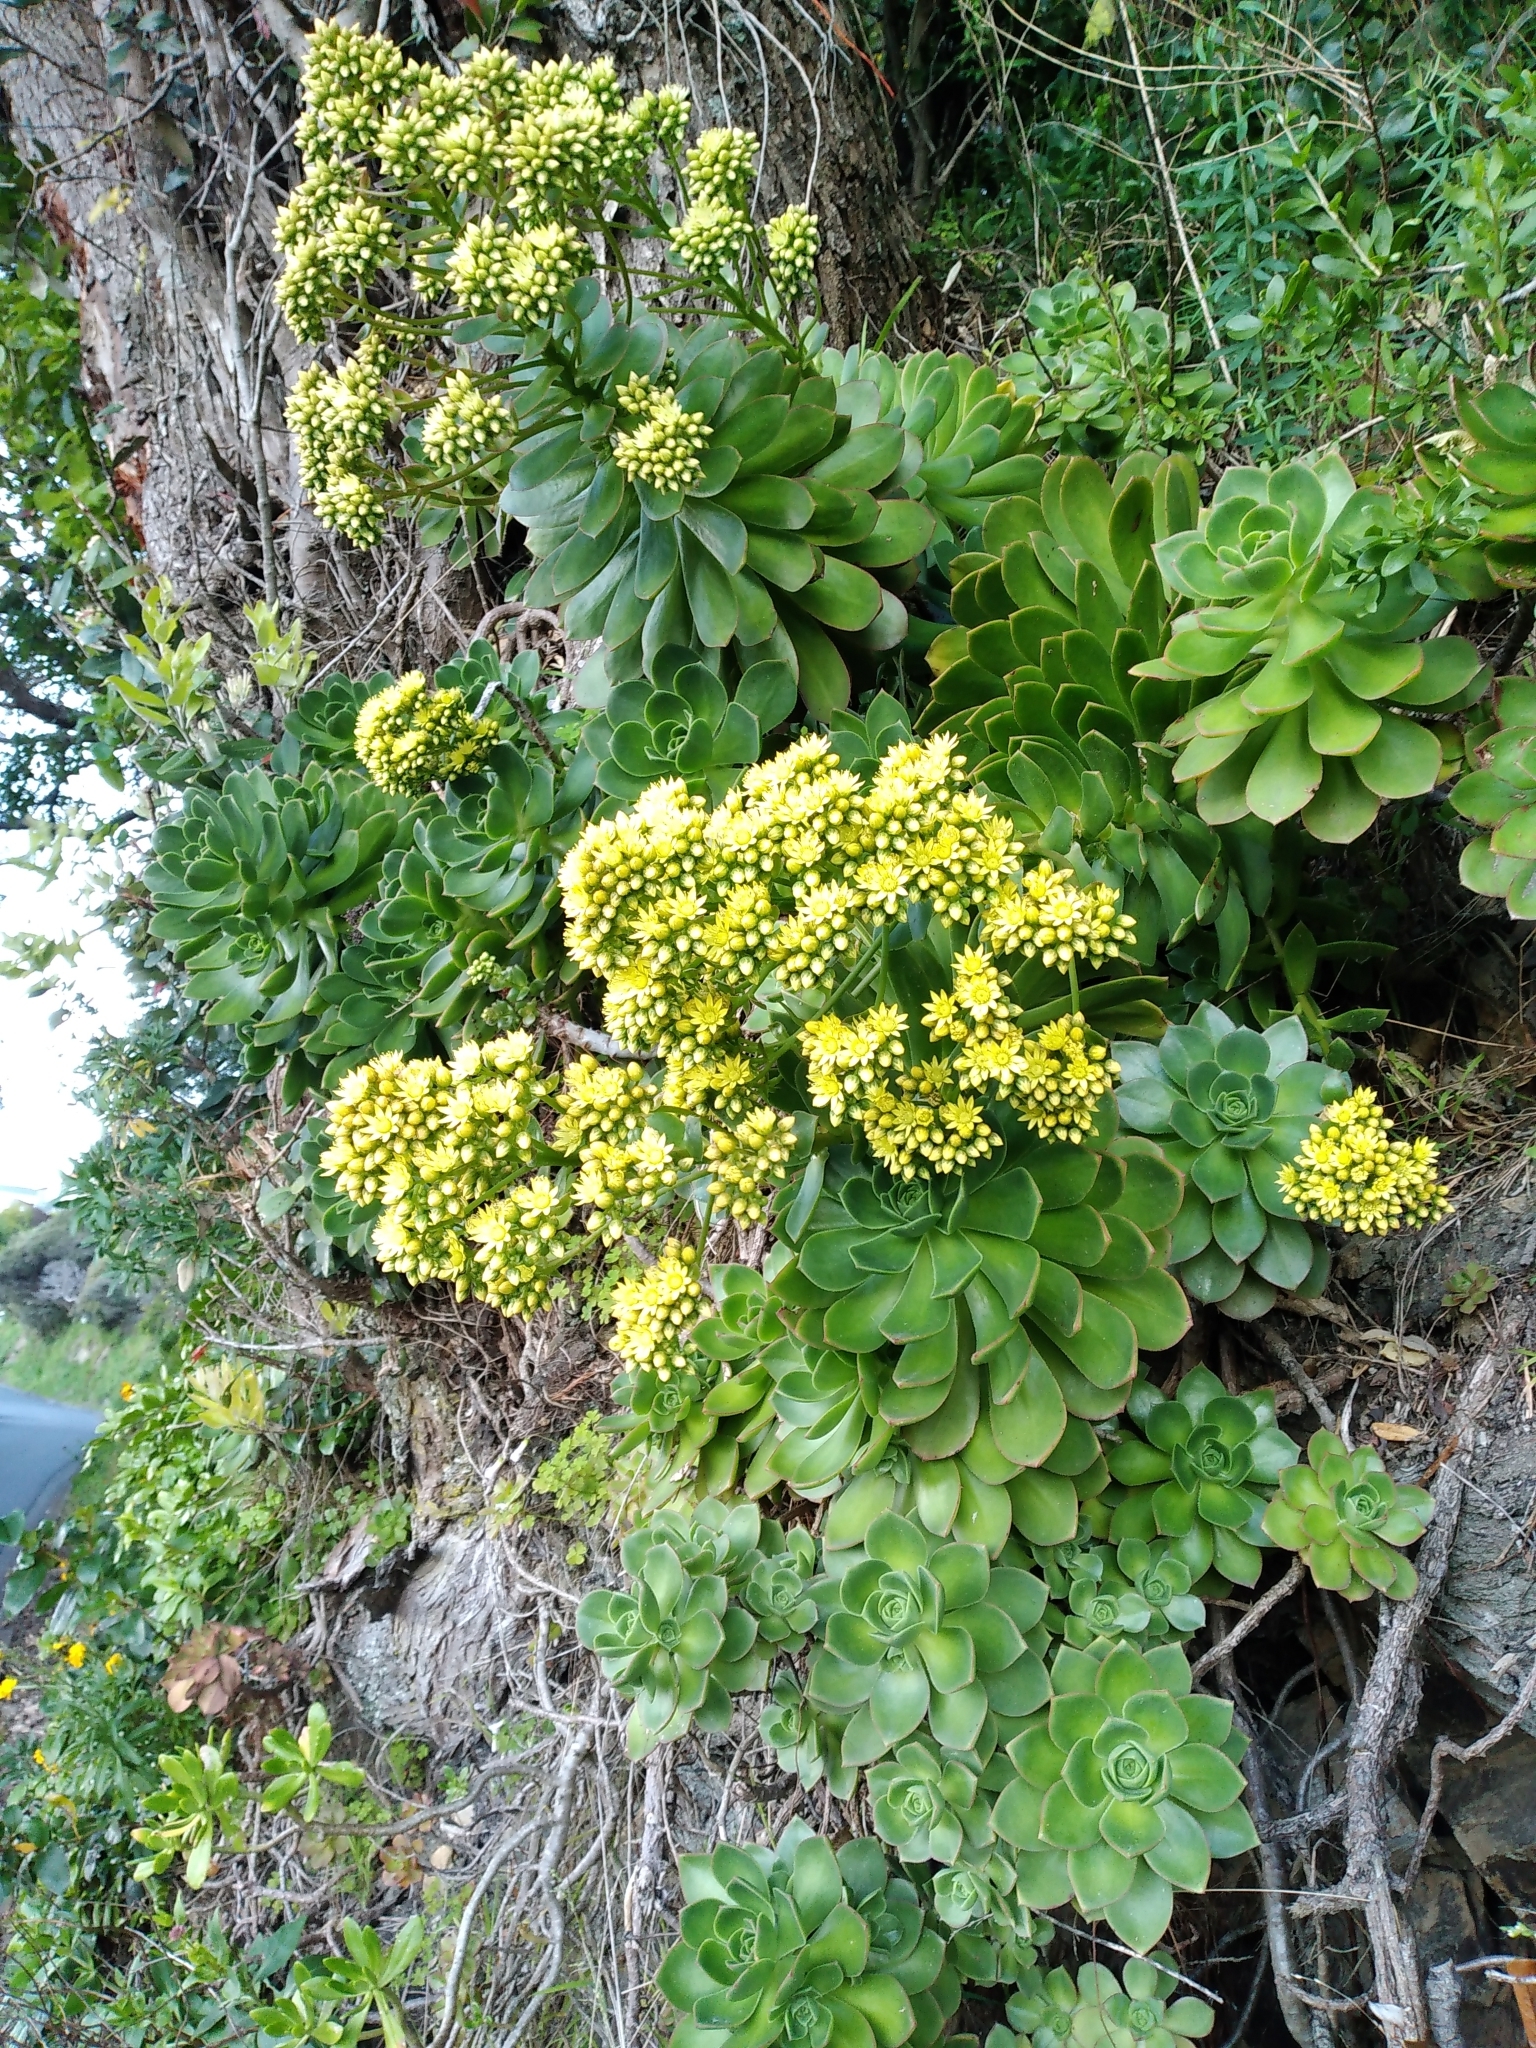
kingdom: Plantae
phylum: Tracheophyta
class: Magnoliopsida
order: Saxifragales
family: Crassulaceae
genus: Aeonium
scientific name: Aeonium arboreum
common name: Tree aeonium
